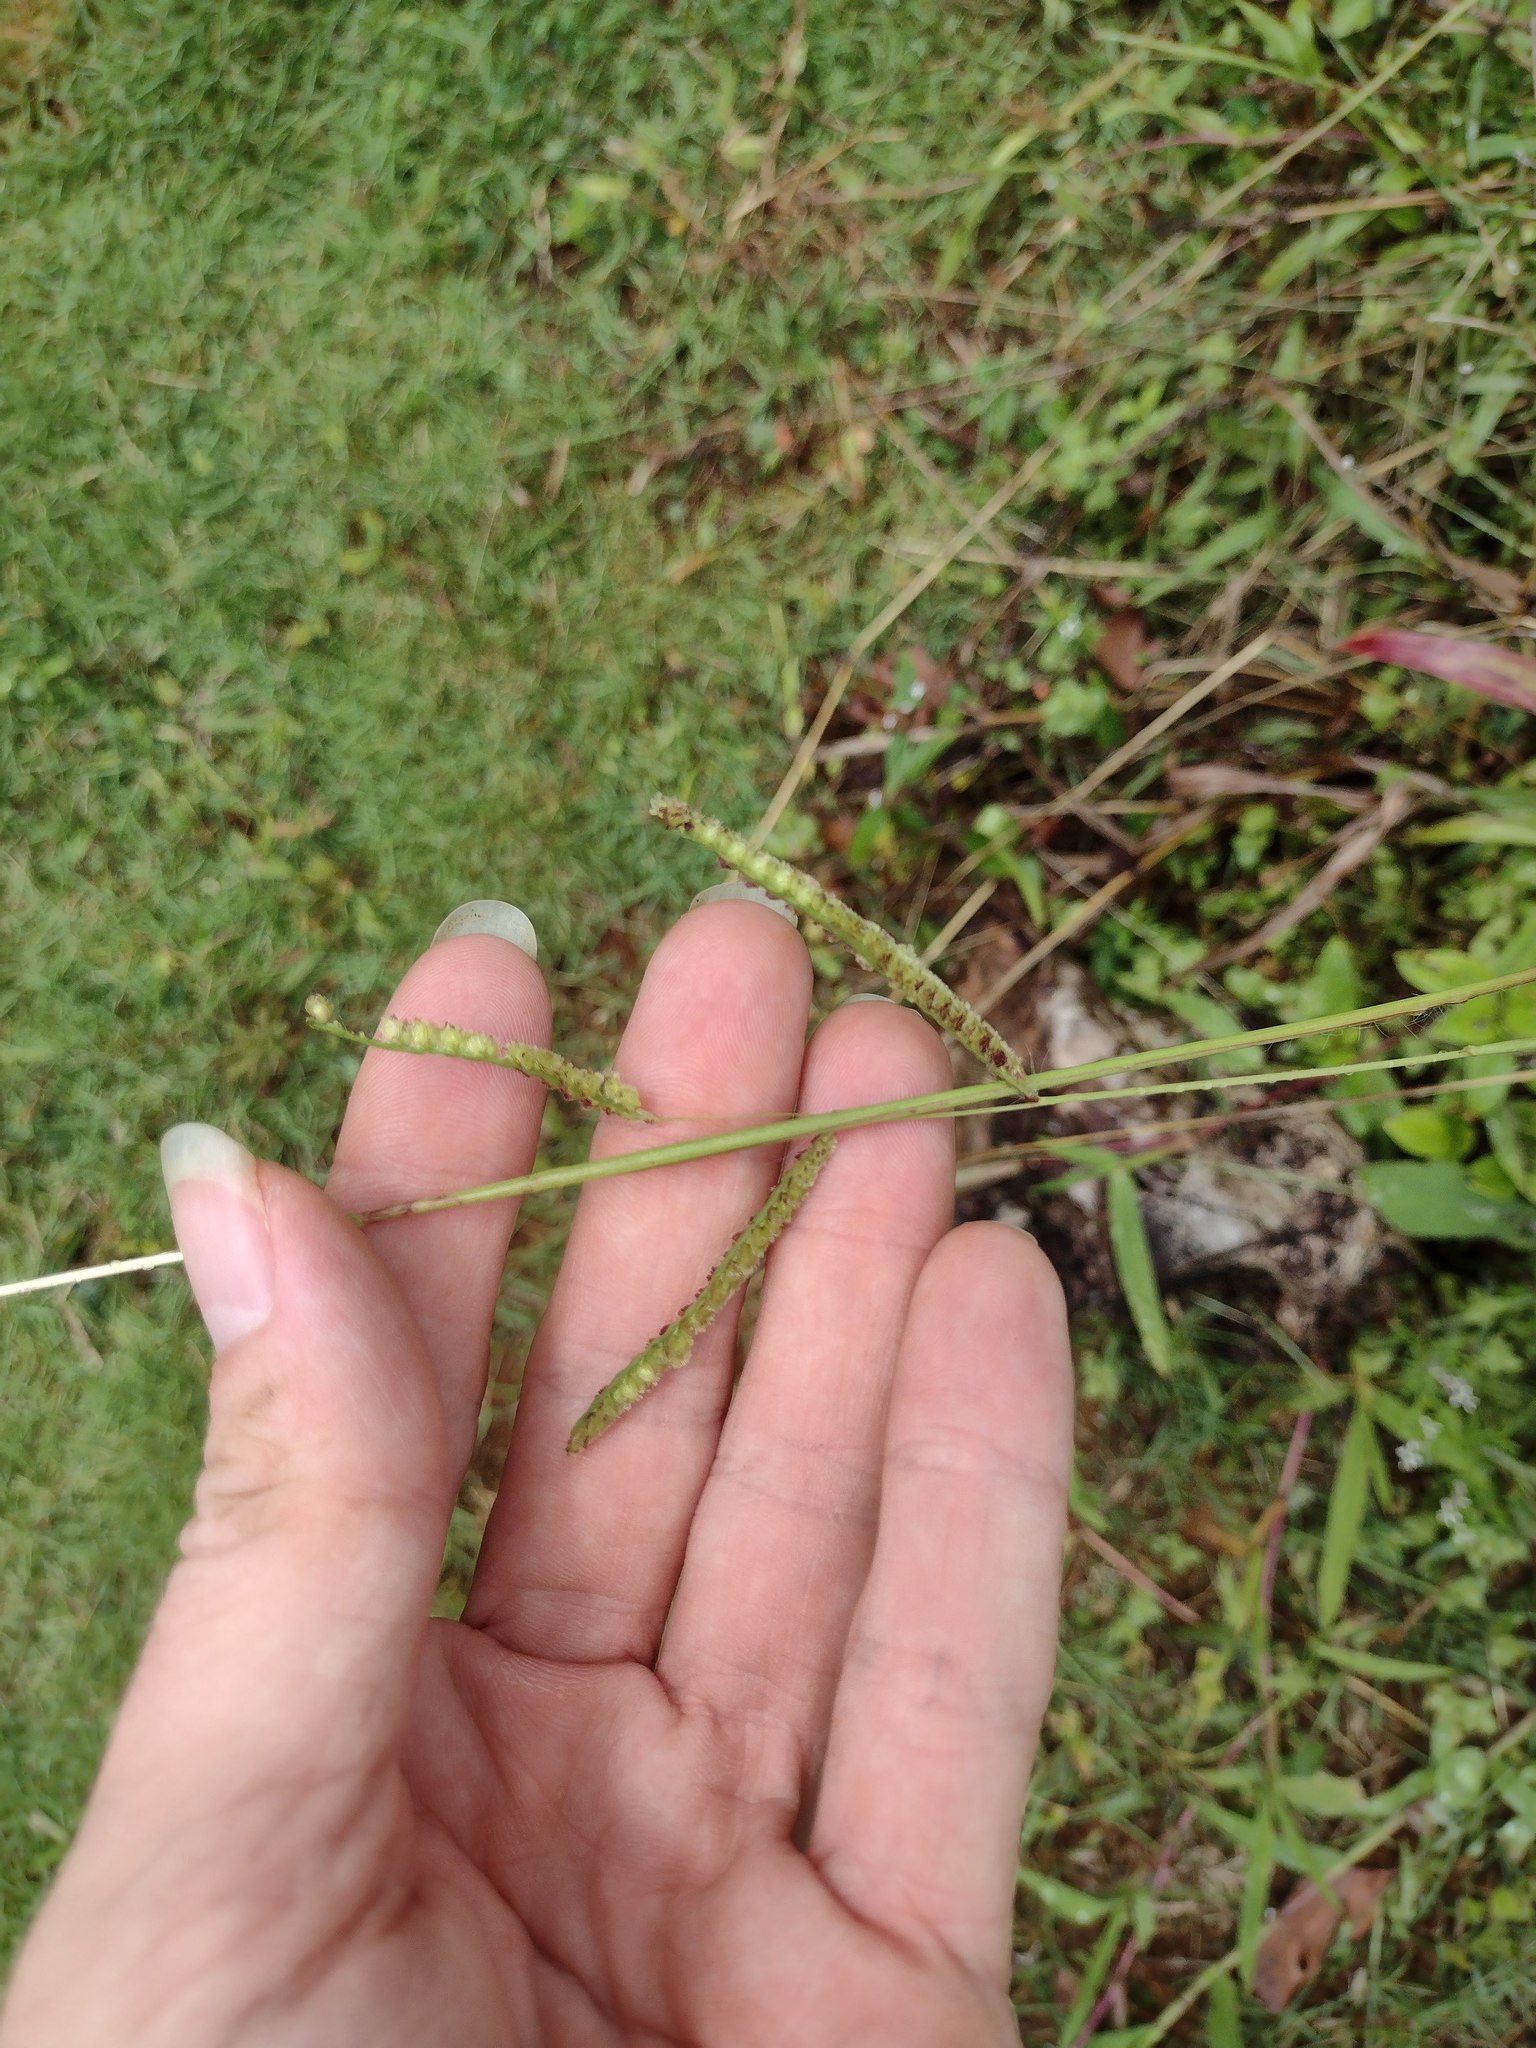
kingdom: Plantae
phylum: Tracheophyta
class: Liliopsida
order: Poales
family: Poaceae
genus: Paspalum
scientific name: Paspalum fimbriatum
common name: Panama crowngrass
